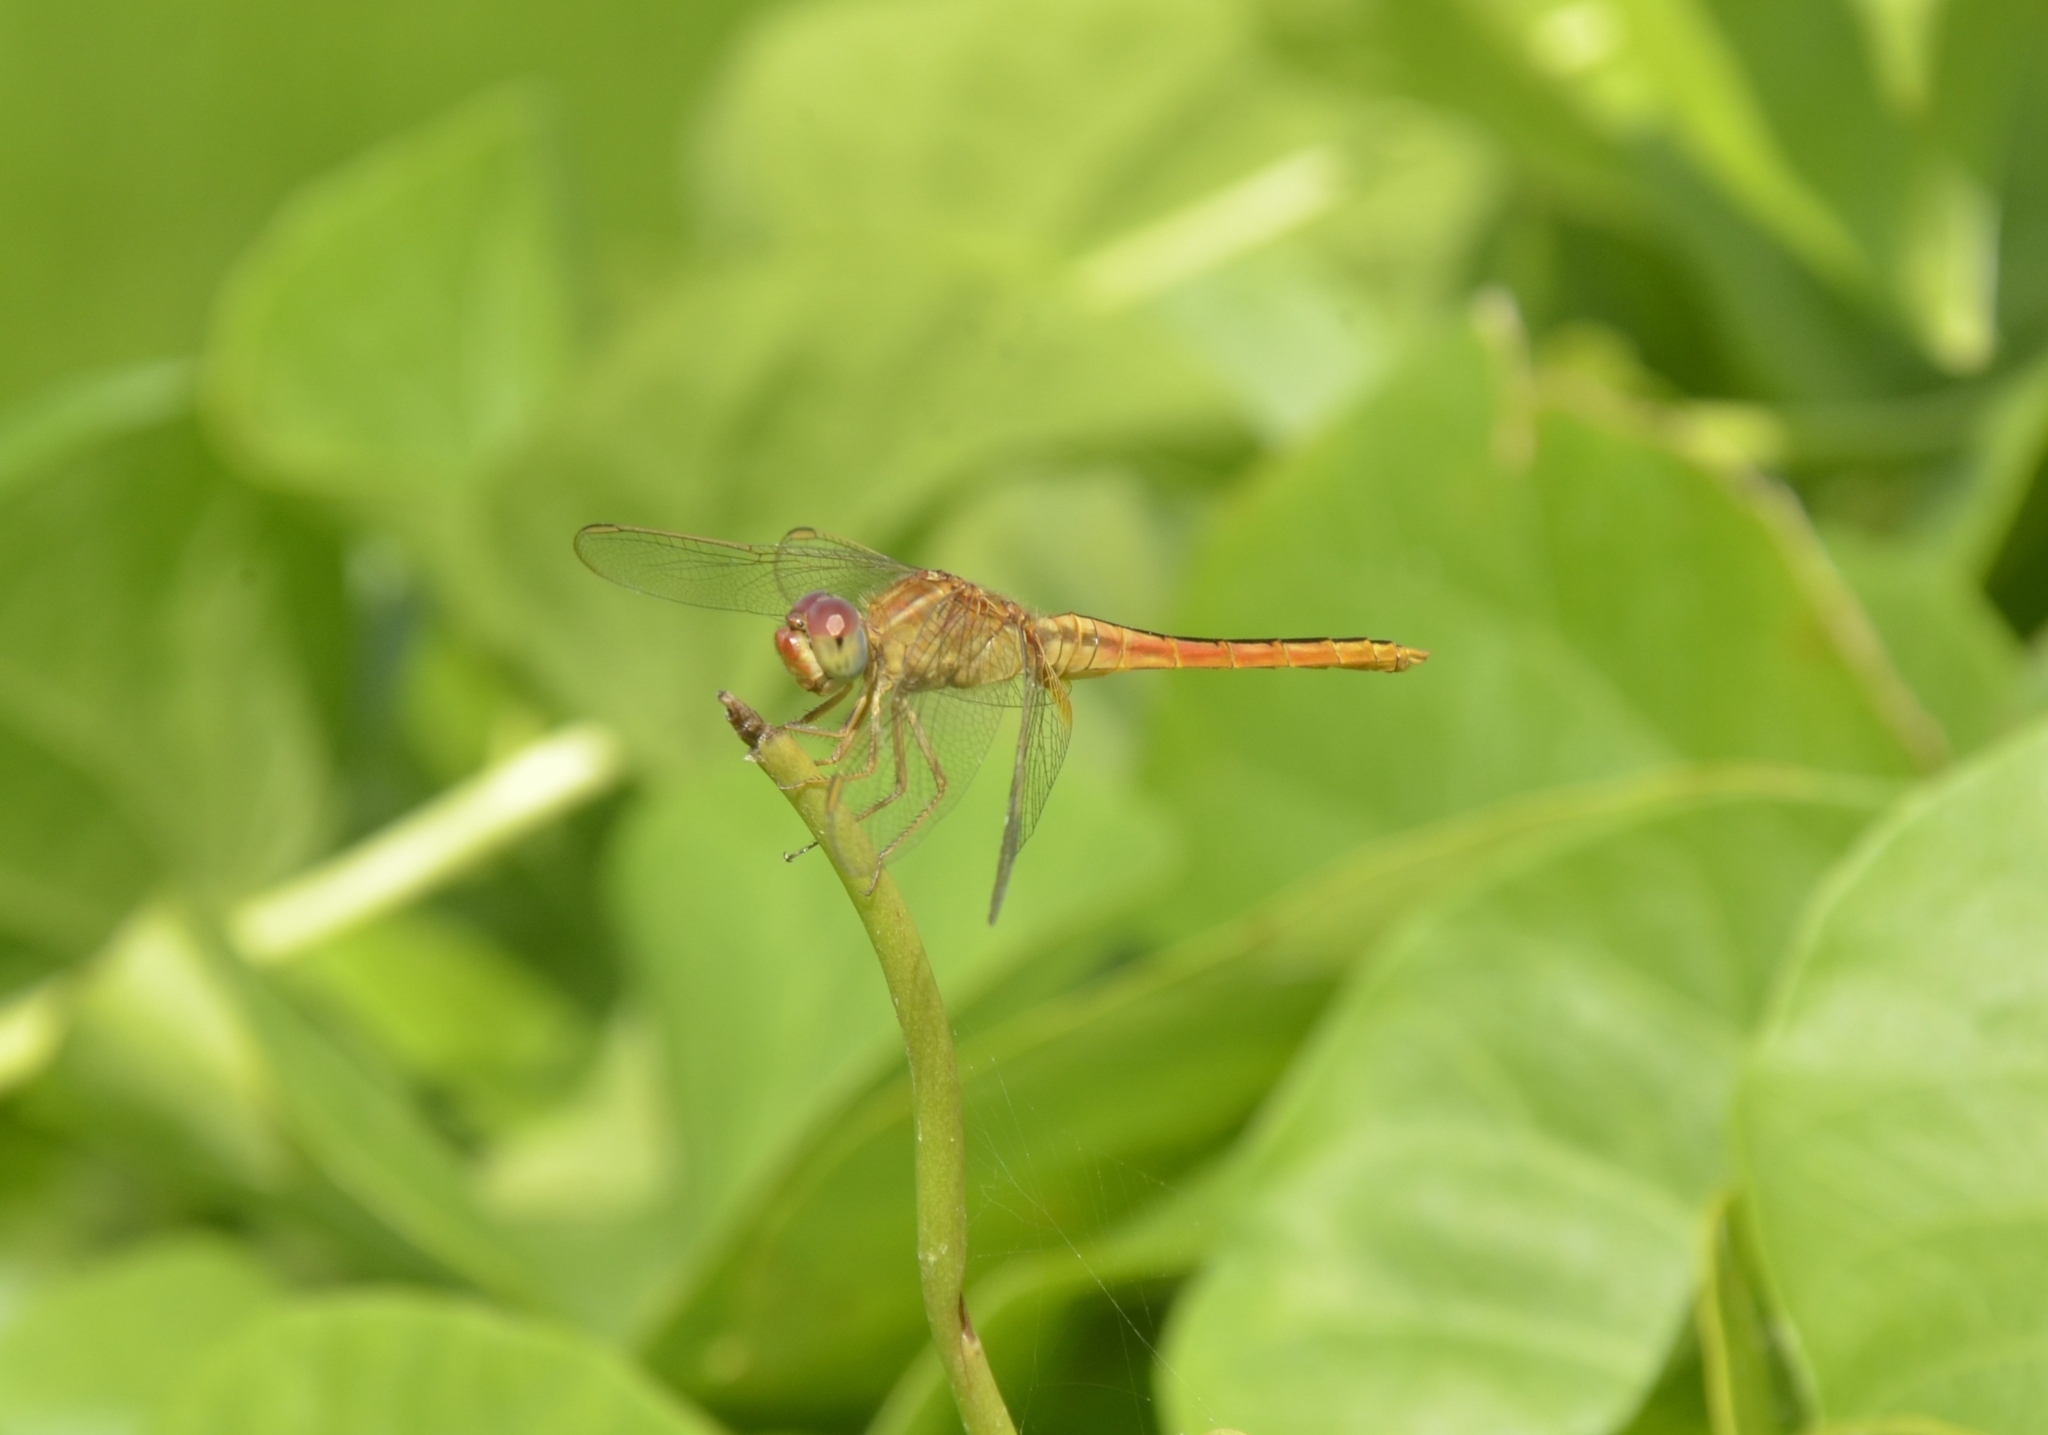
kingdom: Animalia
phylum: Arthropoda
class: Insecta
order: Odonata
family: Libellulidae
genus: Crocothemis
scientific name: Crocothemis servilia
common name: Scarlet skimmer
